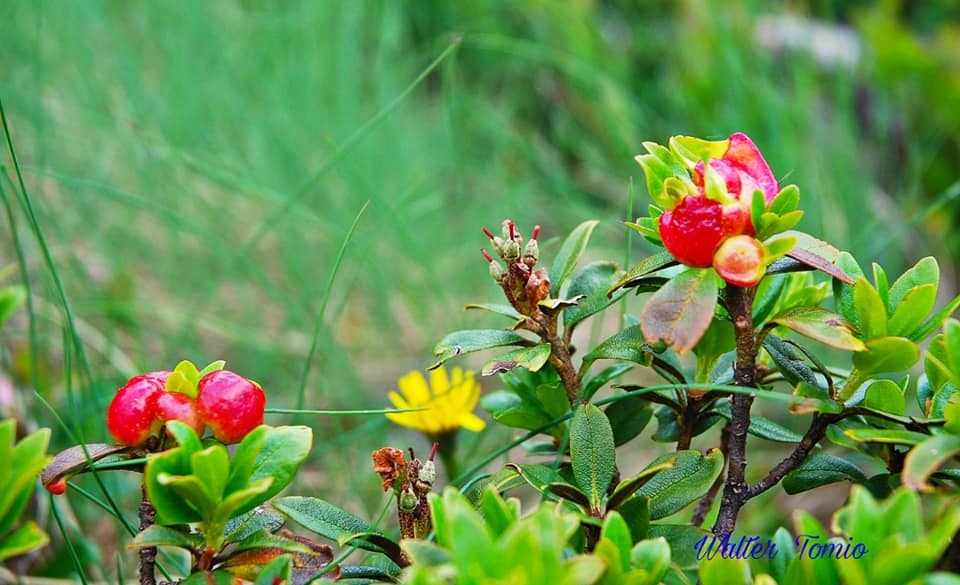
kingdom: Plantae
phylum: Tracheophyta
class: Magnoliopsida
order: Ericales
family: Ericaceae
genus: Rhododendron
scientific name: Rhododendron ferrugineum
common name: Alpenrose
